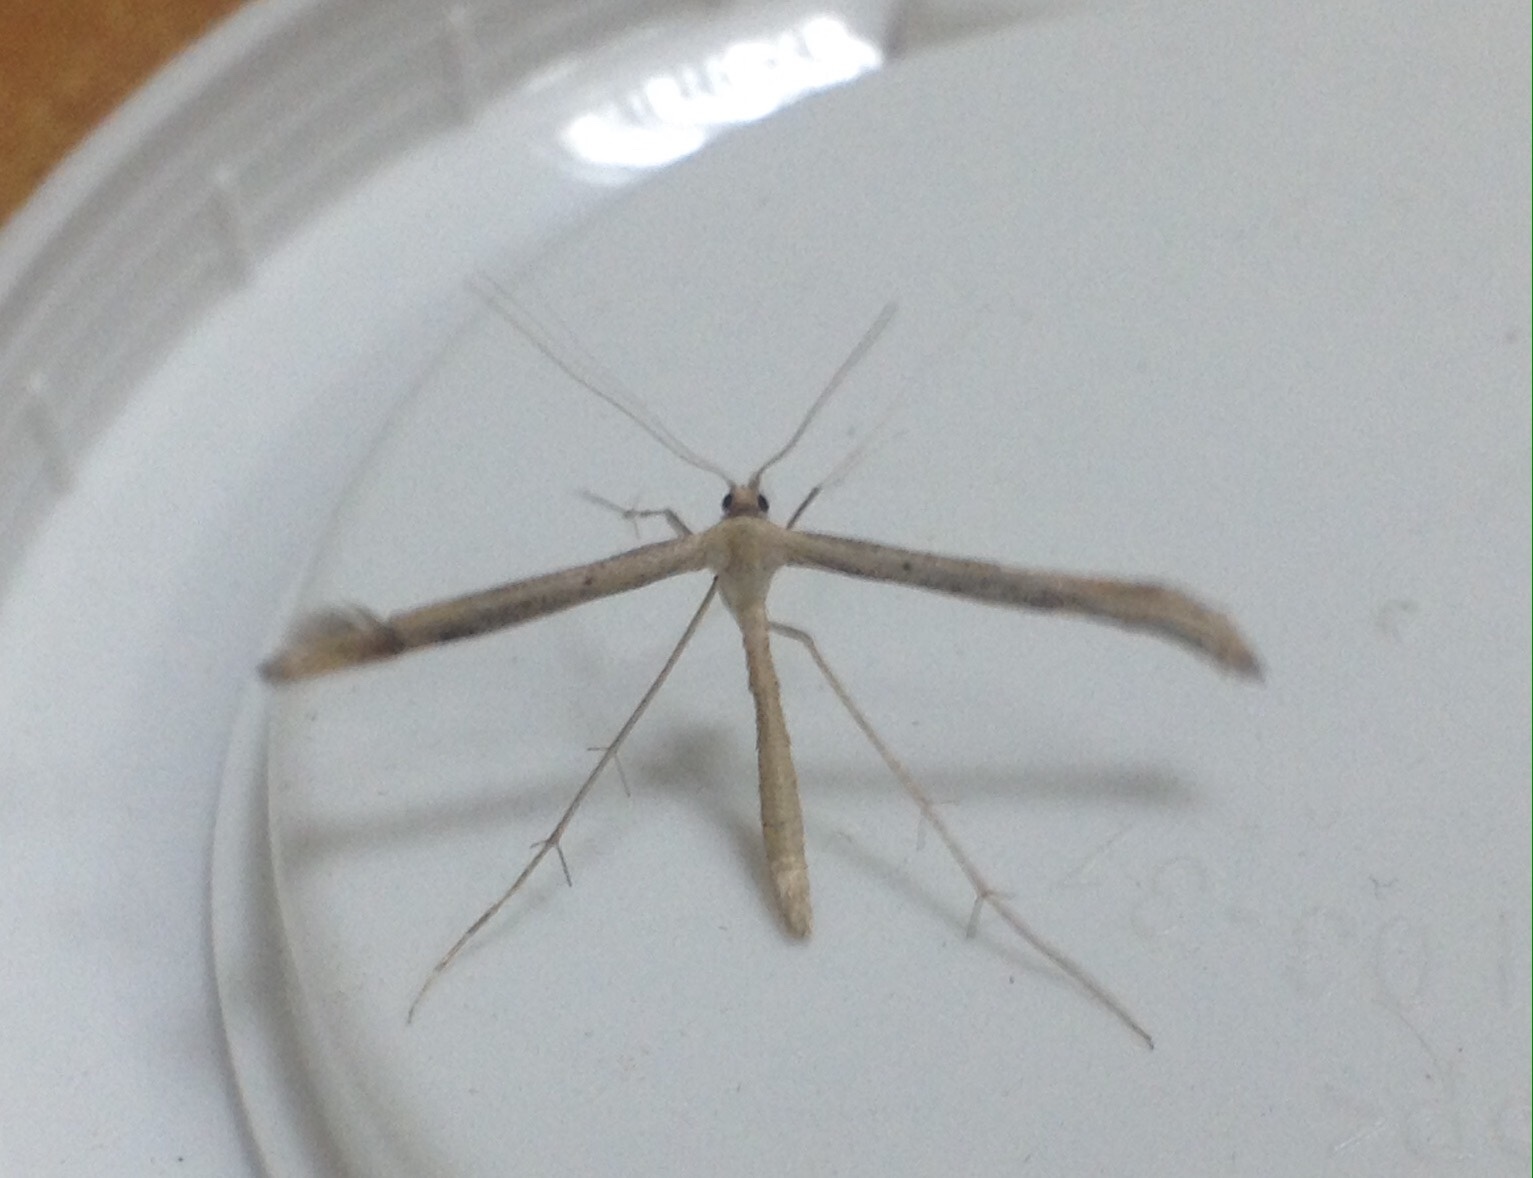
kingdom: Animalia
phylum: Arthropoda
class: Insecta
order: Lepidoptera
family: Pterophoridae
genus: Emmelina
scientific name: Emmelina monodactyla
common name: Common plume
